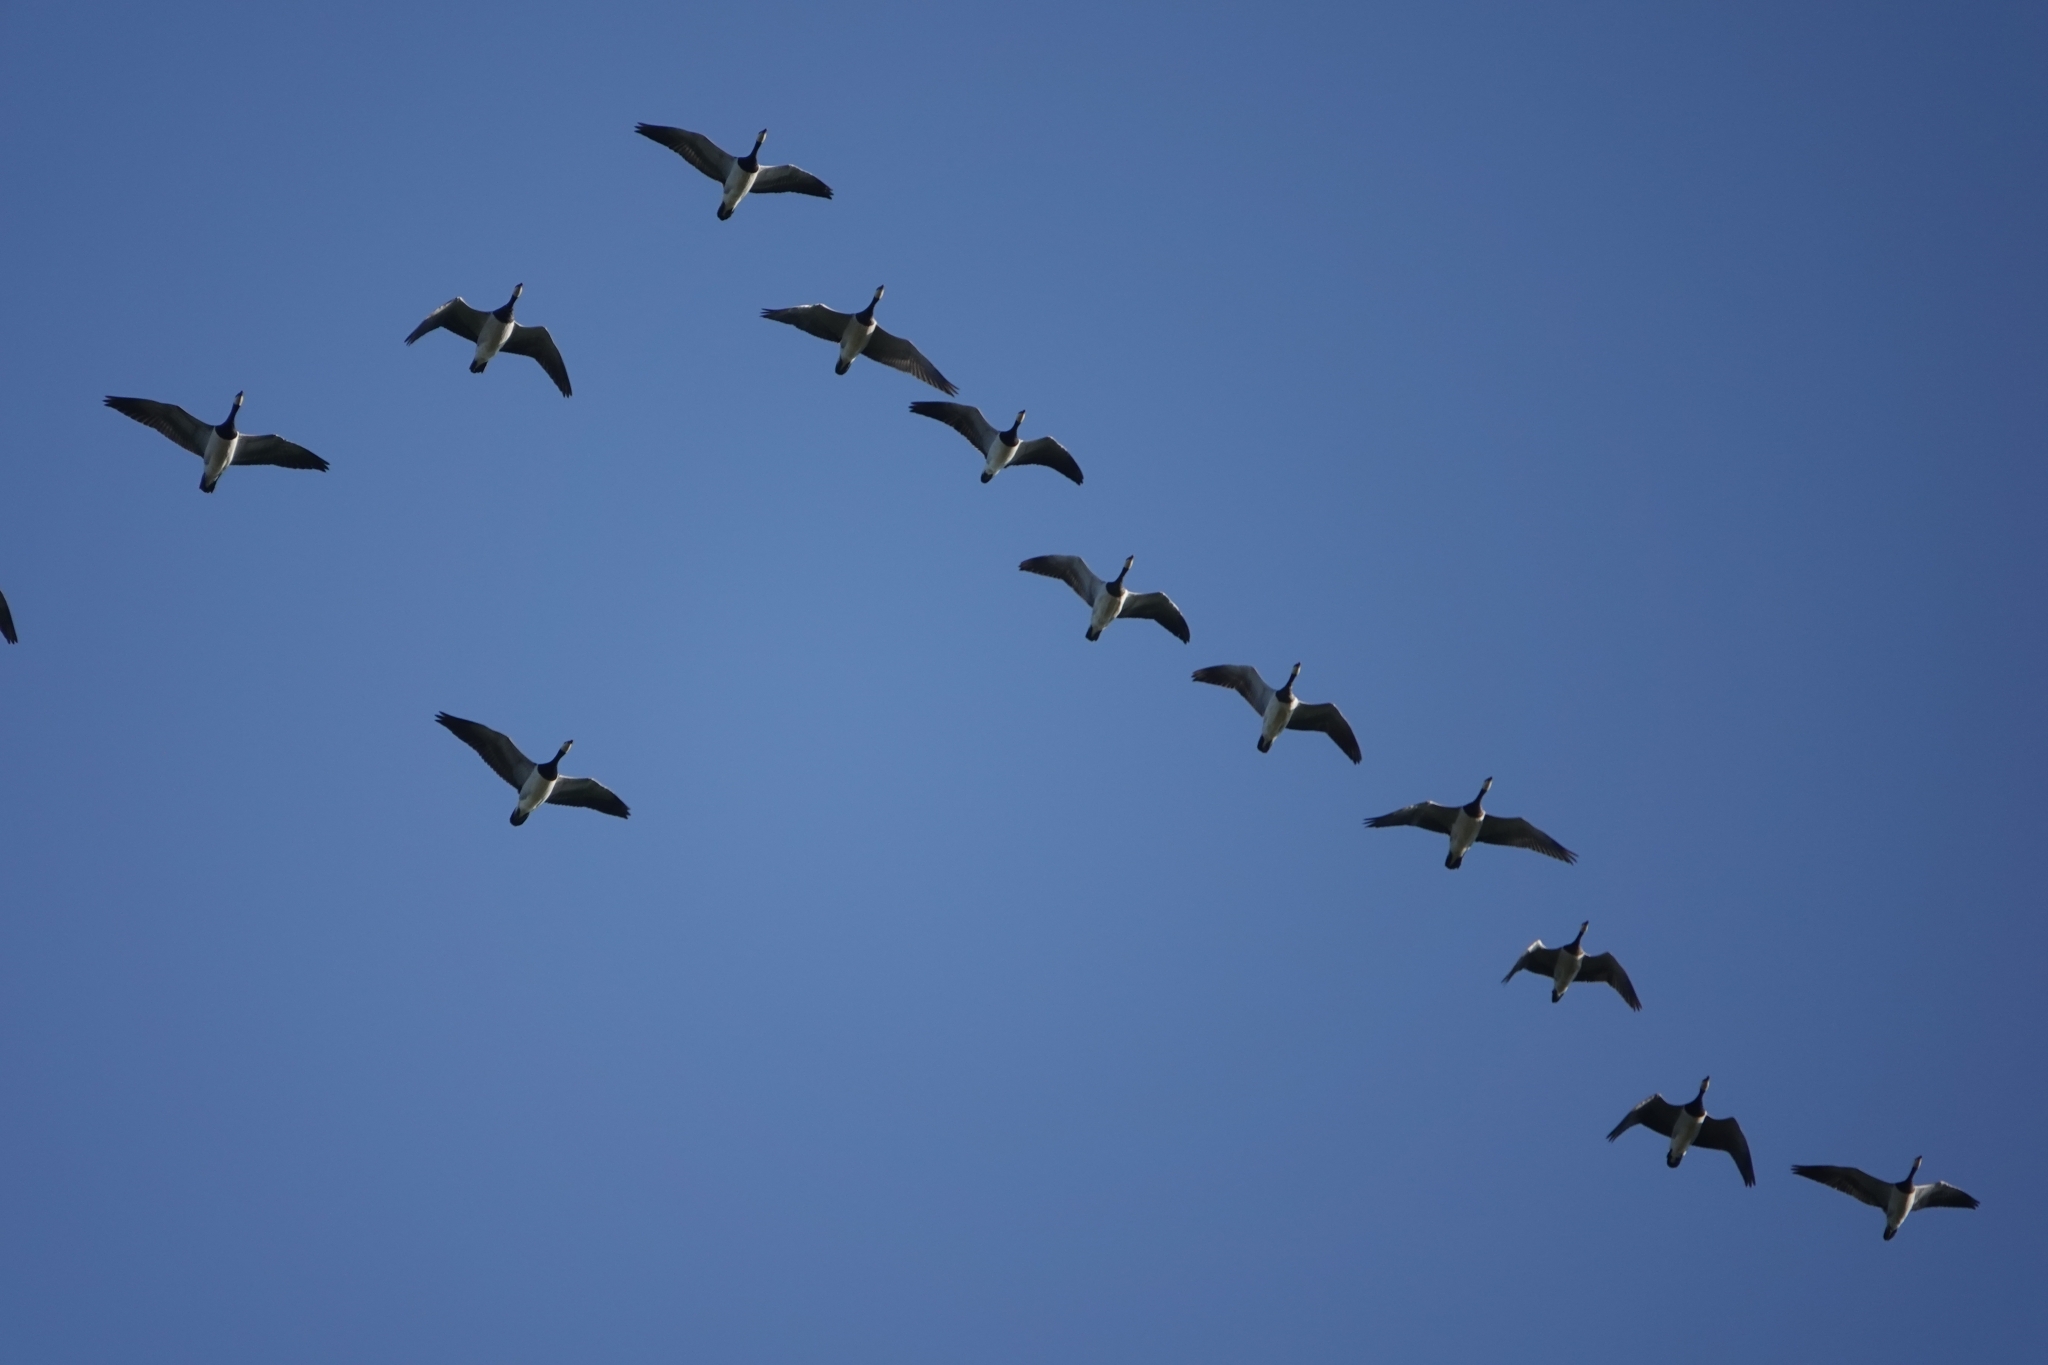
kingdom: Animalia
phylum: Chordata
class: Aves
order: Anseriformes
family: Anatidae
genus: Branta
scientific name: Branta canadensis
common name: Canada goose
